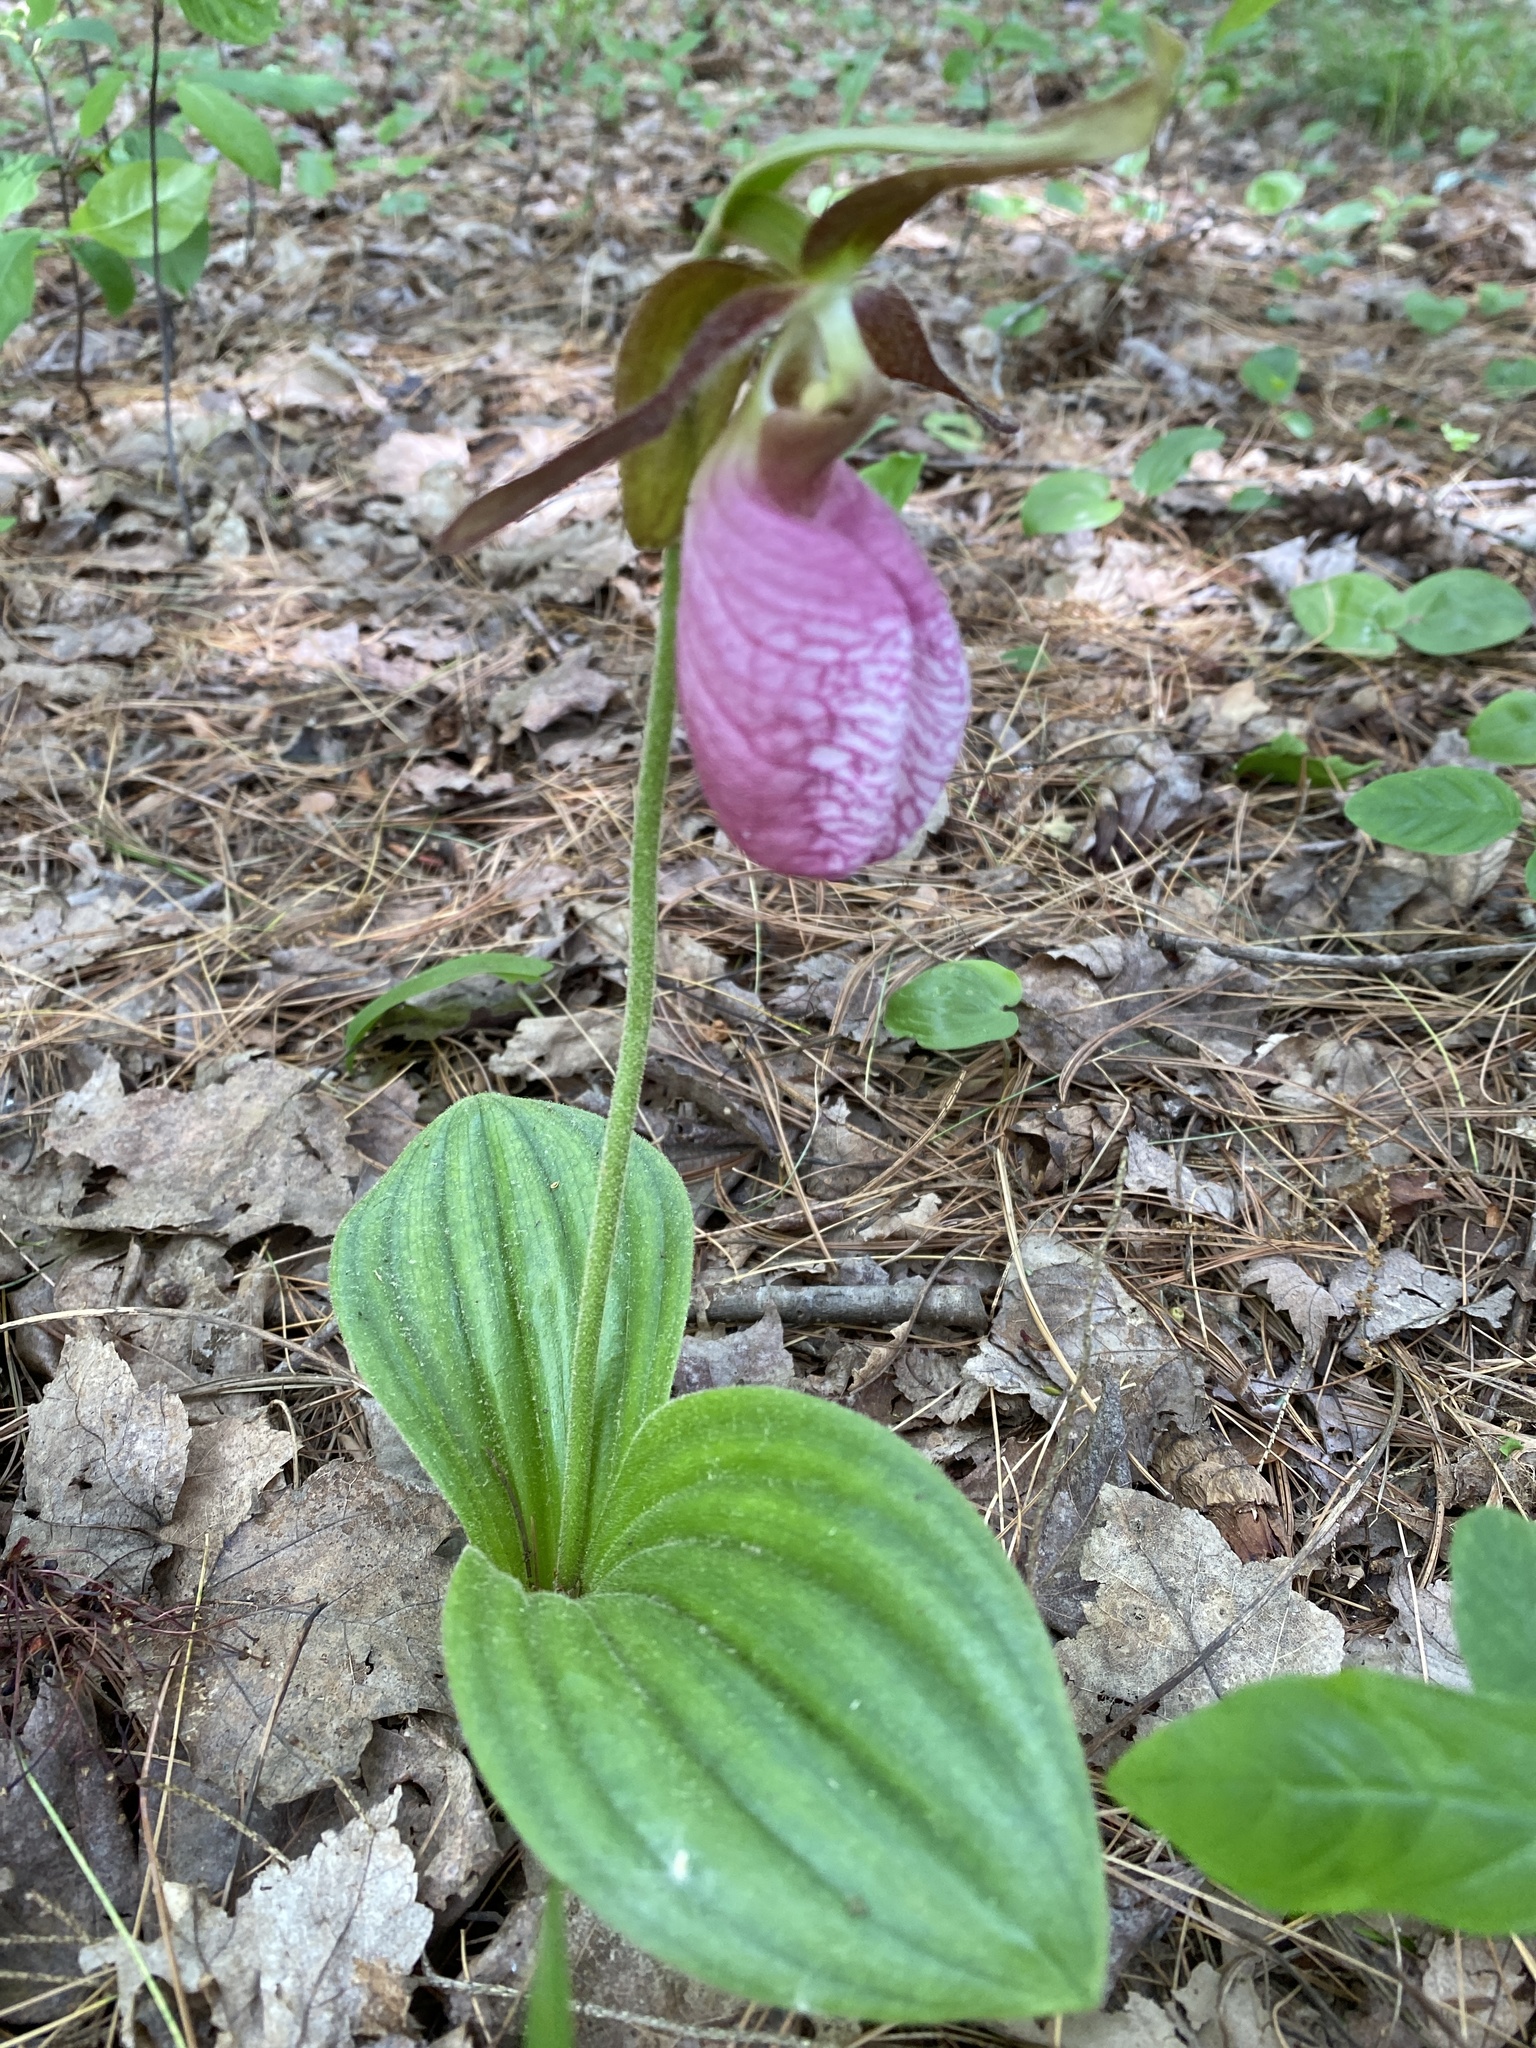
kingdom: Plantae
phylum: Tracheophyta
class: Liliopsida
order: Asparagales
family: Orchidaceae
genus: Cypripedium
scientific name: Cypripedium acaule
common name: Pink lady's-slipper
